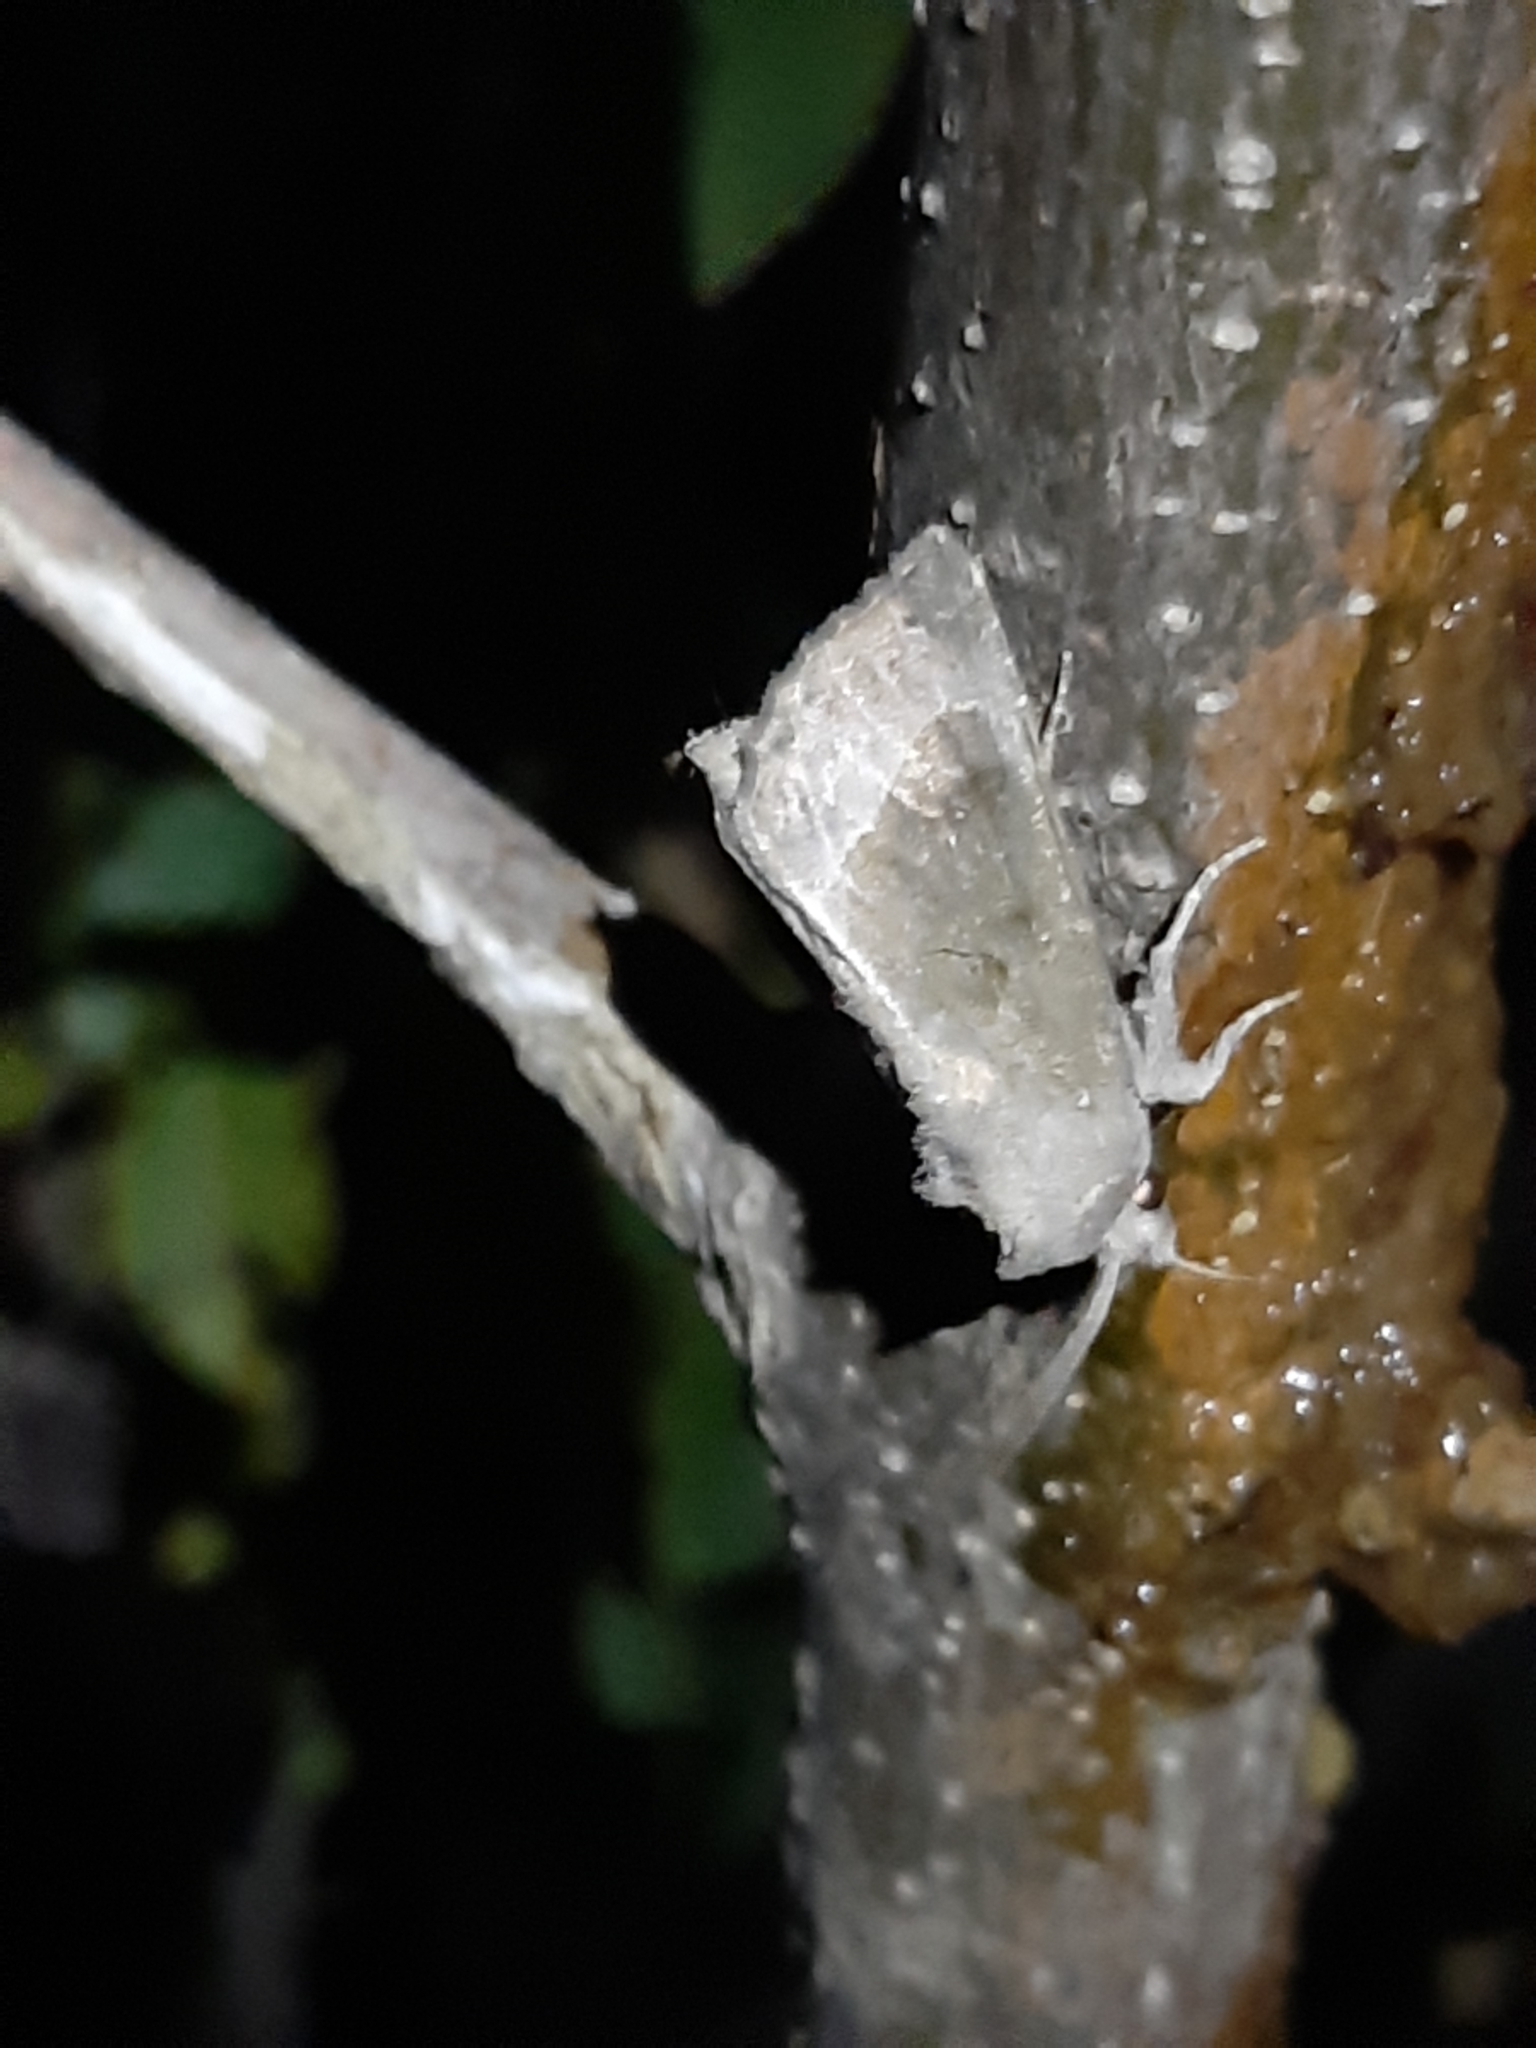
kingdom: Animalia
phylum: Arthropoda
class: Insecta
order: Lepidoptera
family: Noctuidae
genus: Papaipema
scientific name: Papaipema nebris
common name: Stalk borer
